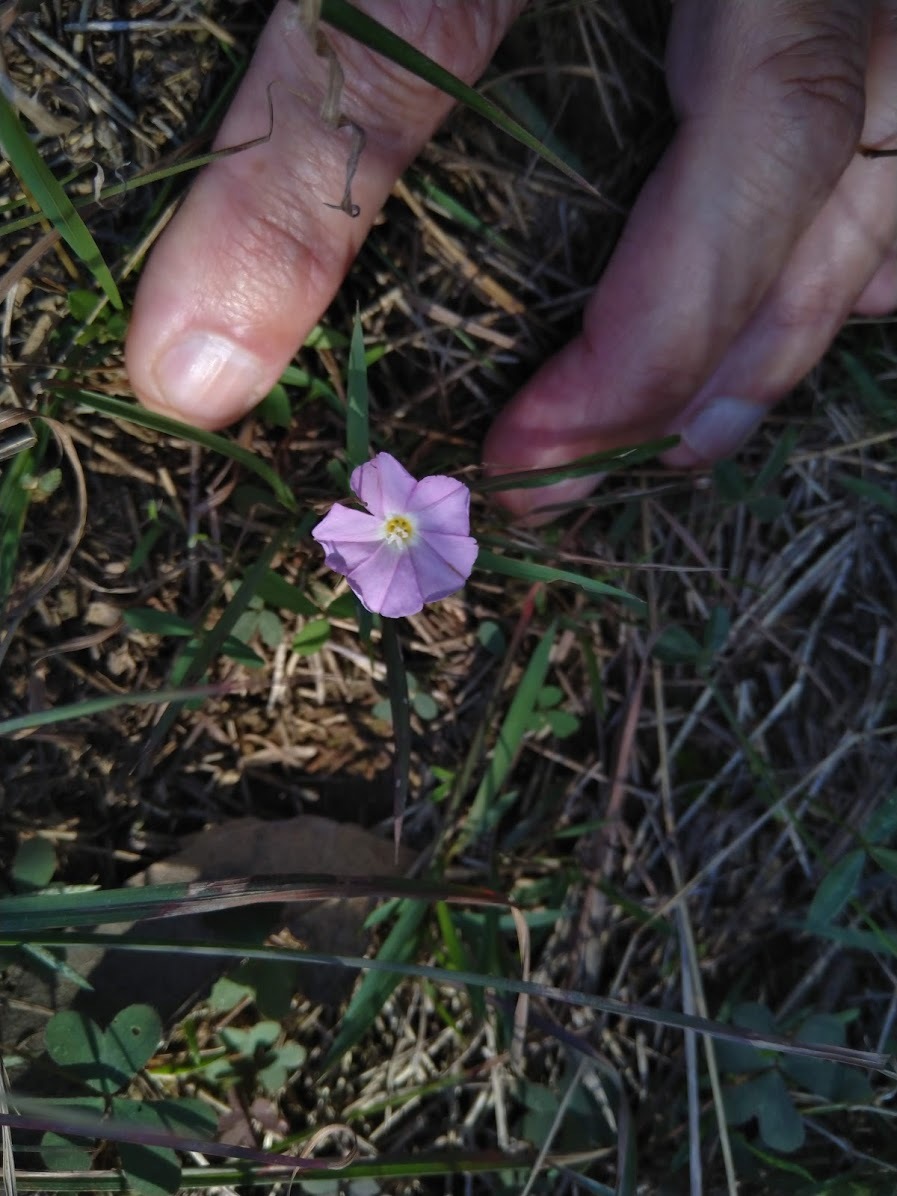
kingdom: Plantae
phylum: Tracheophyta
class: Magnoliopsida
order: Solanales
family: Convolvulaceae
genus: Polymeria
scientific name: Polymeria calycina
